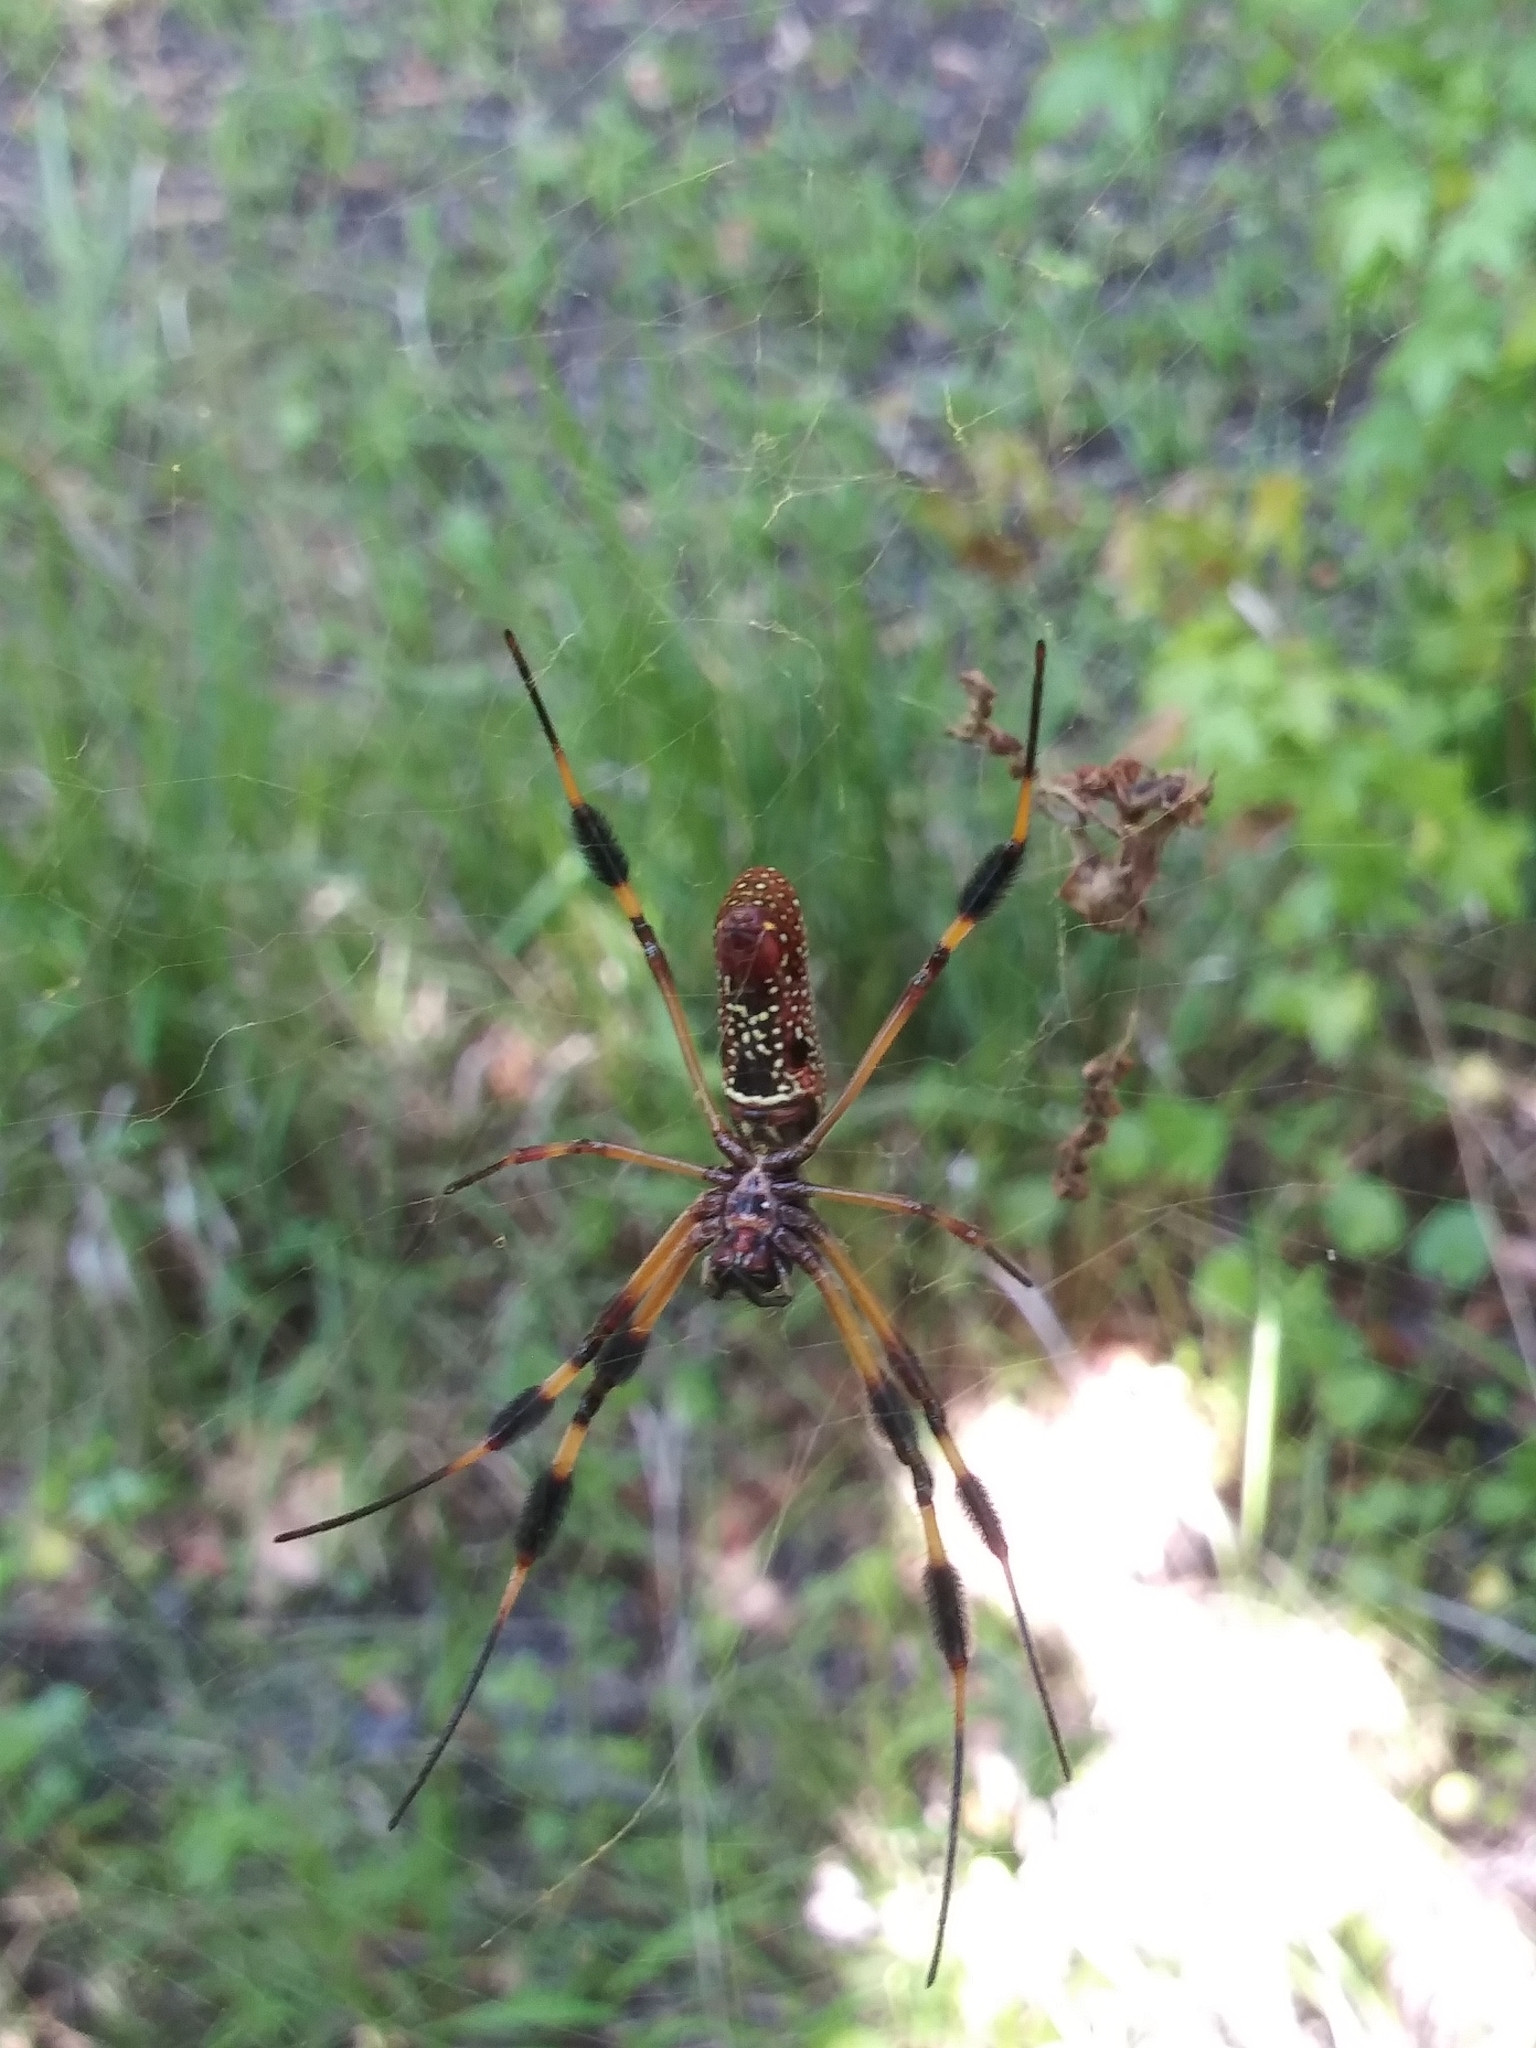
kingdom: Animalia
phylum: Arthropoda
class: Arachnida
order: Araneae
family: Araneidae
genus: Trichonephila
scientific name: Trichonephila clavipes
